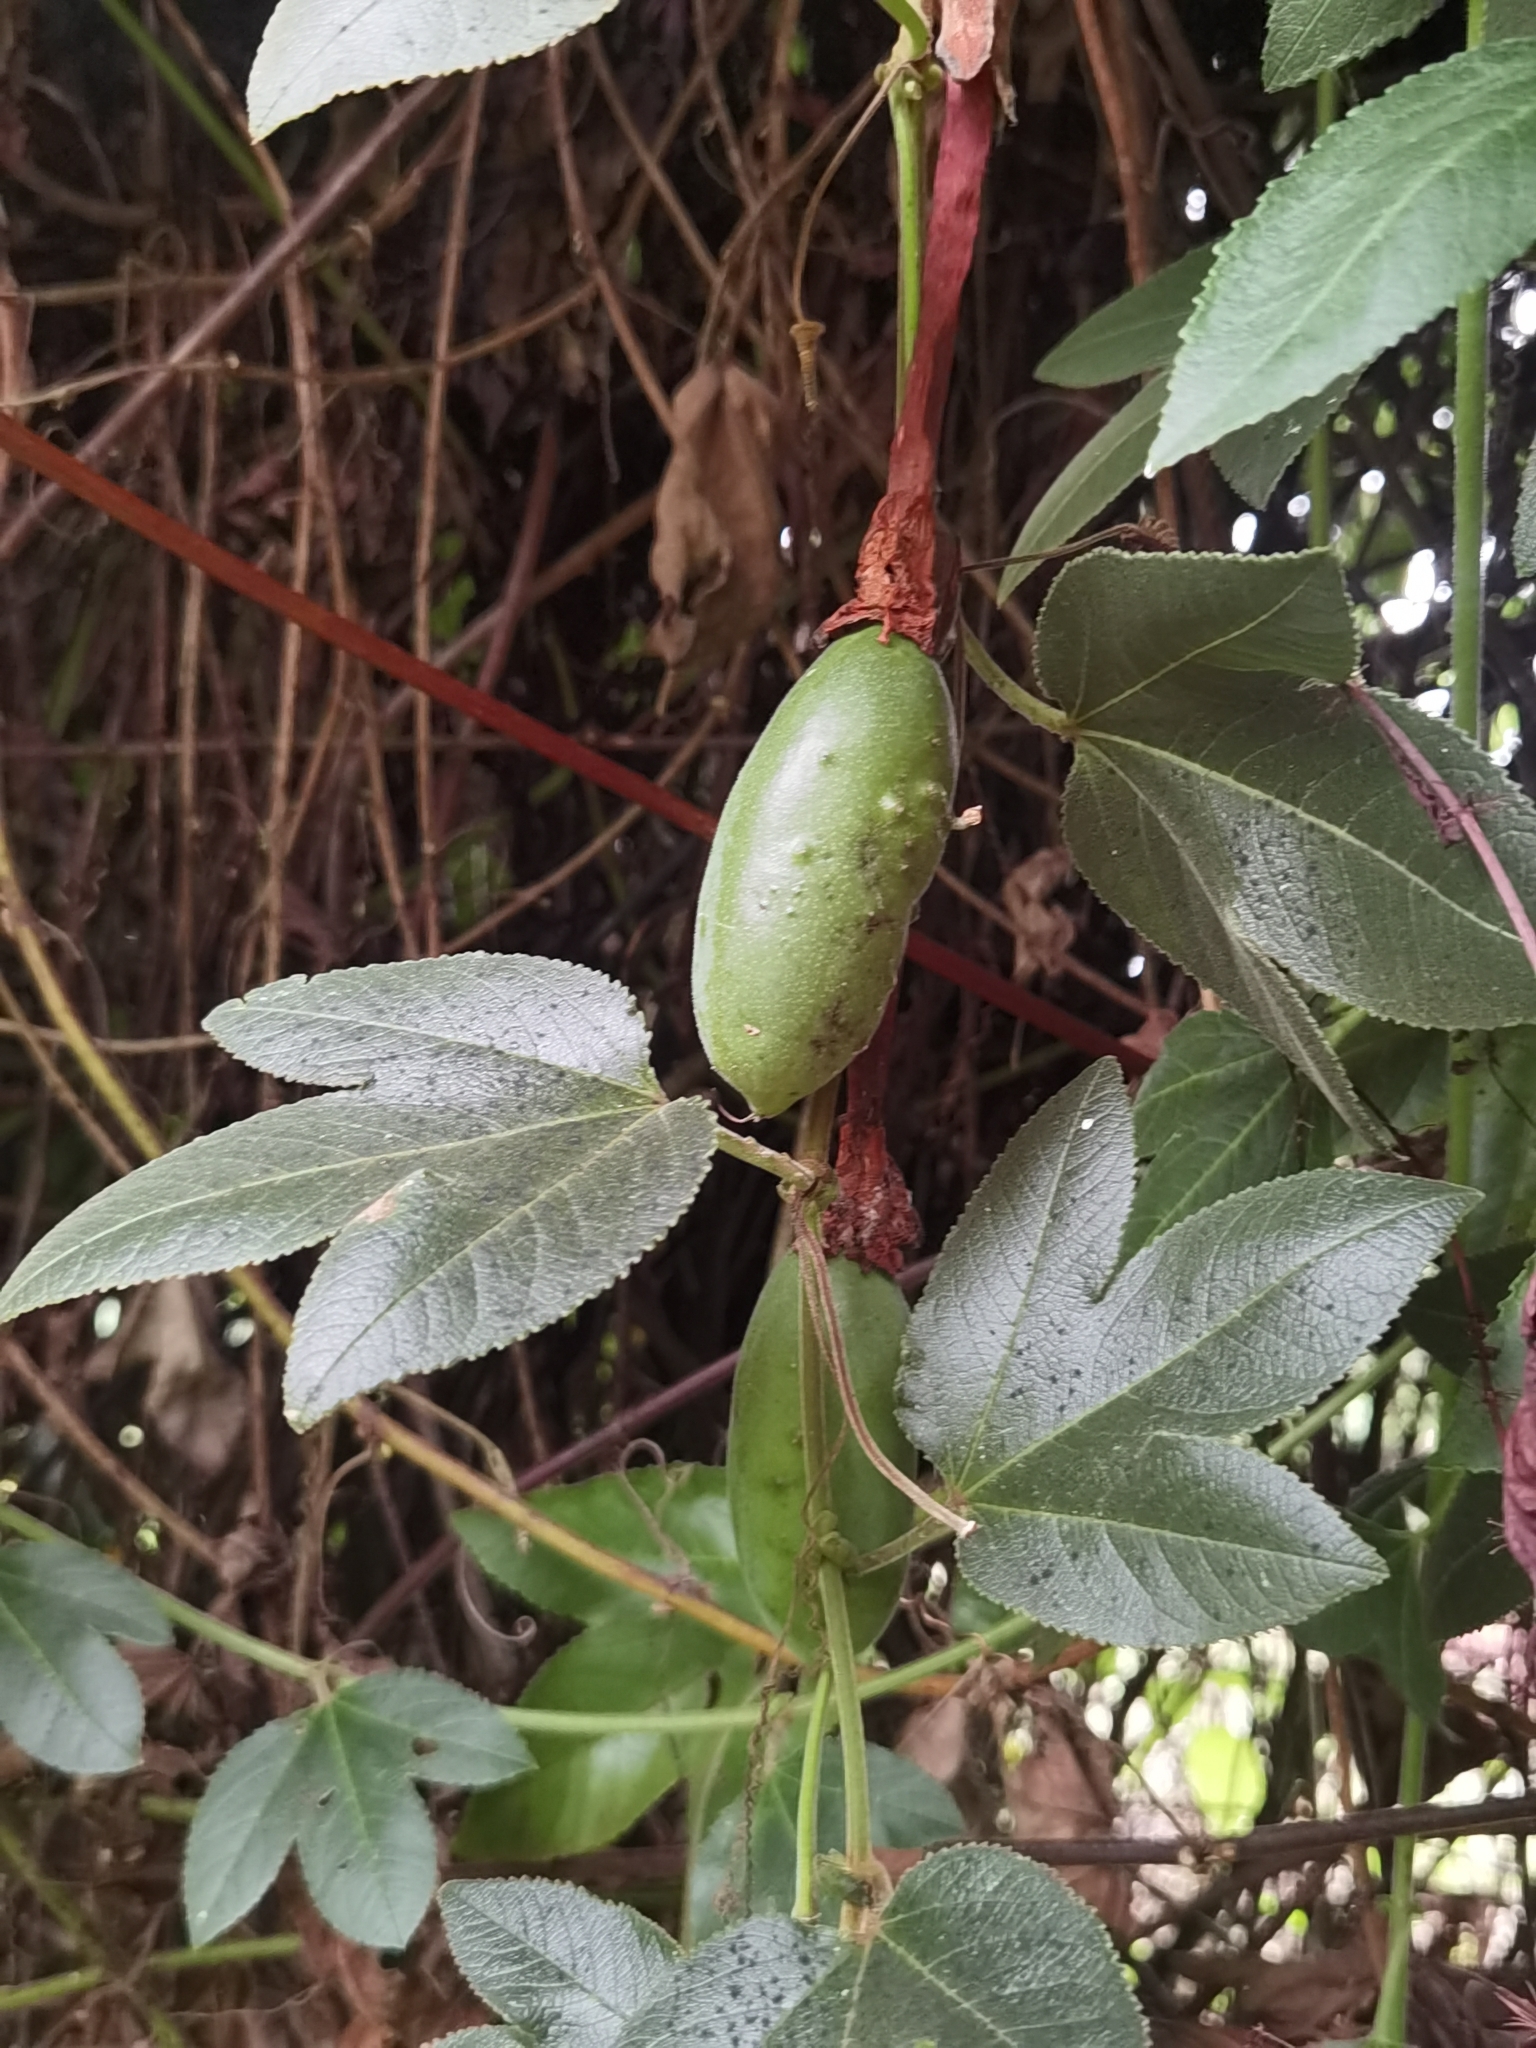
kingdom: Plantae
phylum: Tracheophyta
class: Magnoliopsida
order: Malpighiales
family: Passifloraceae
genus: Passiflora
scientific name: Passiflora tripartita
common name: Banana poka
